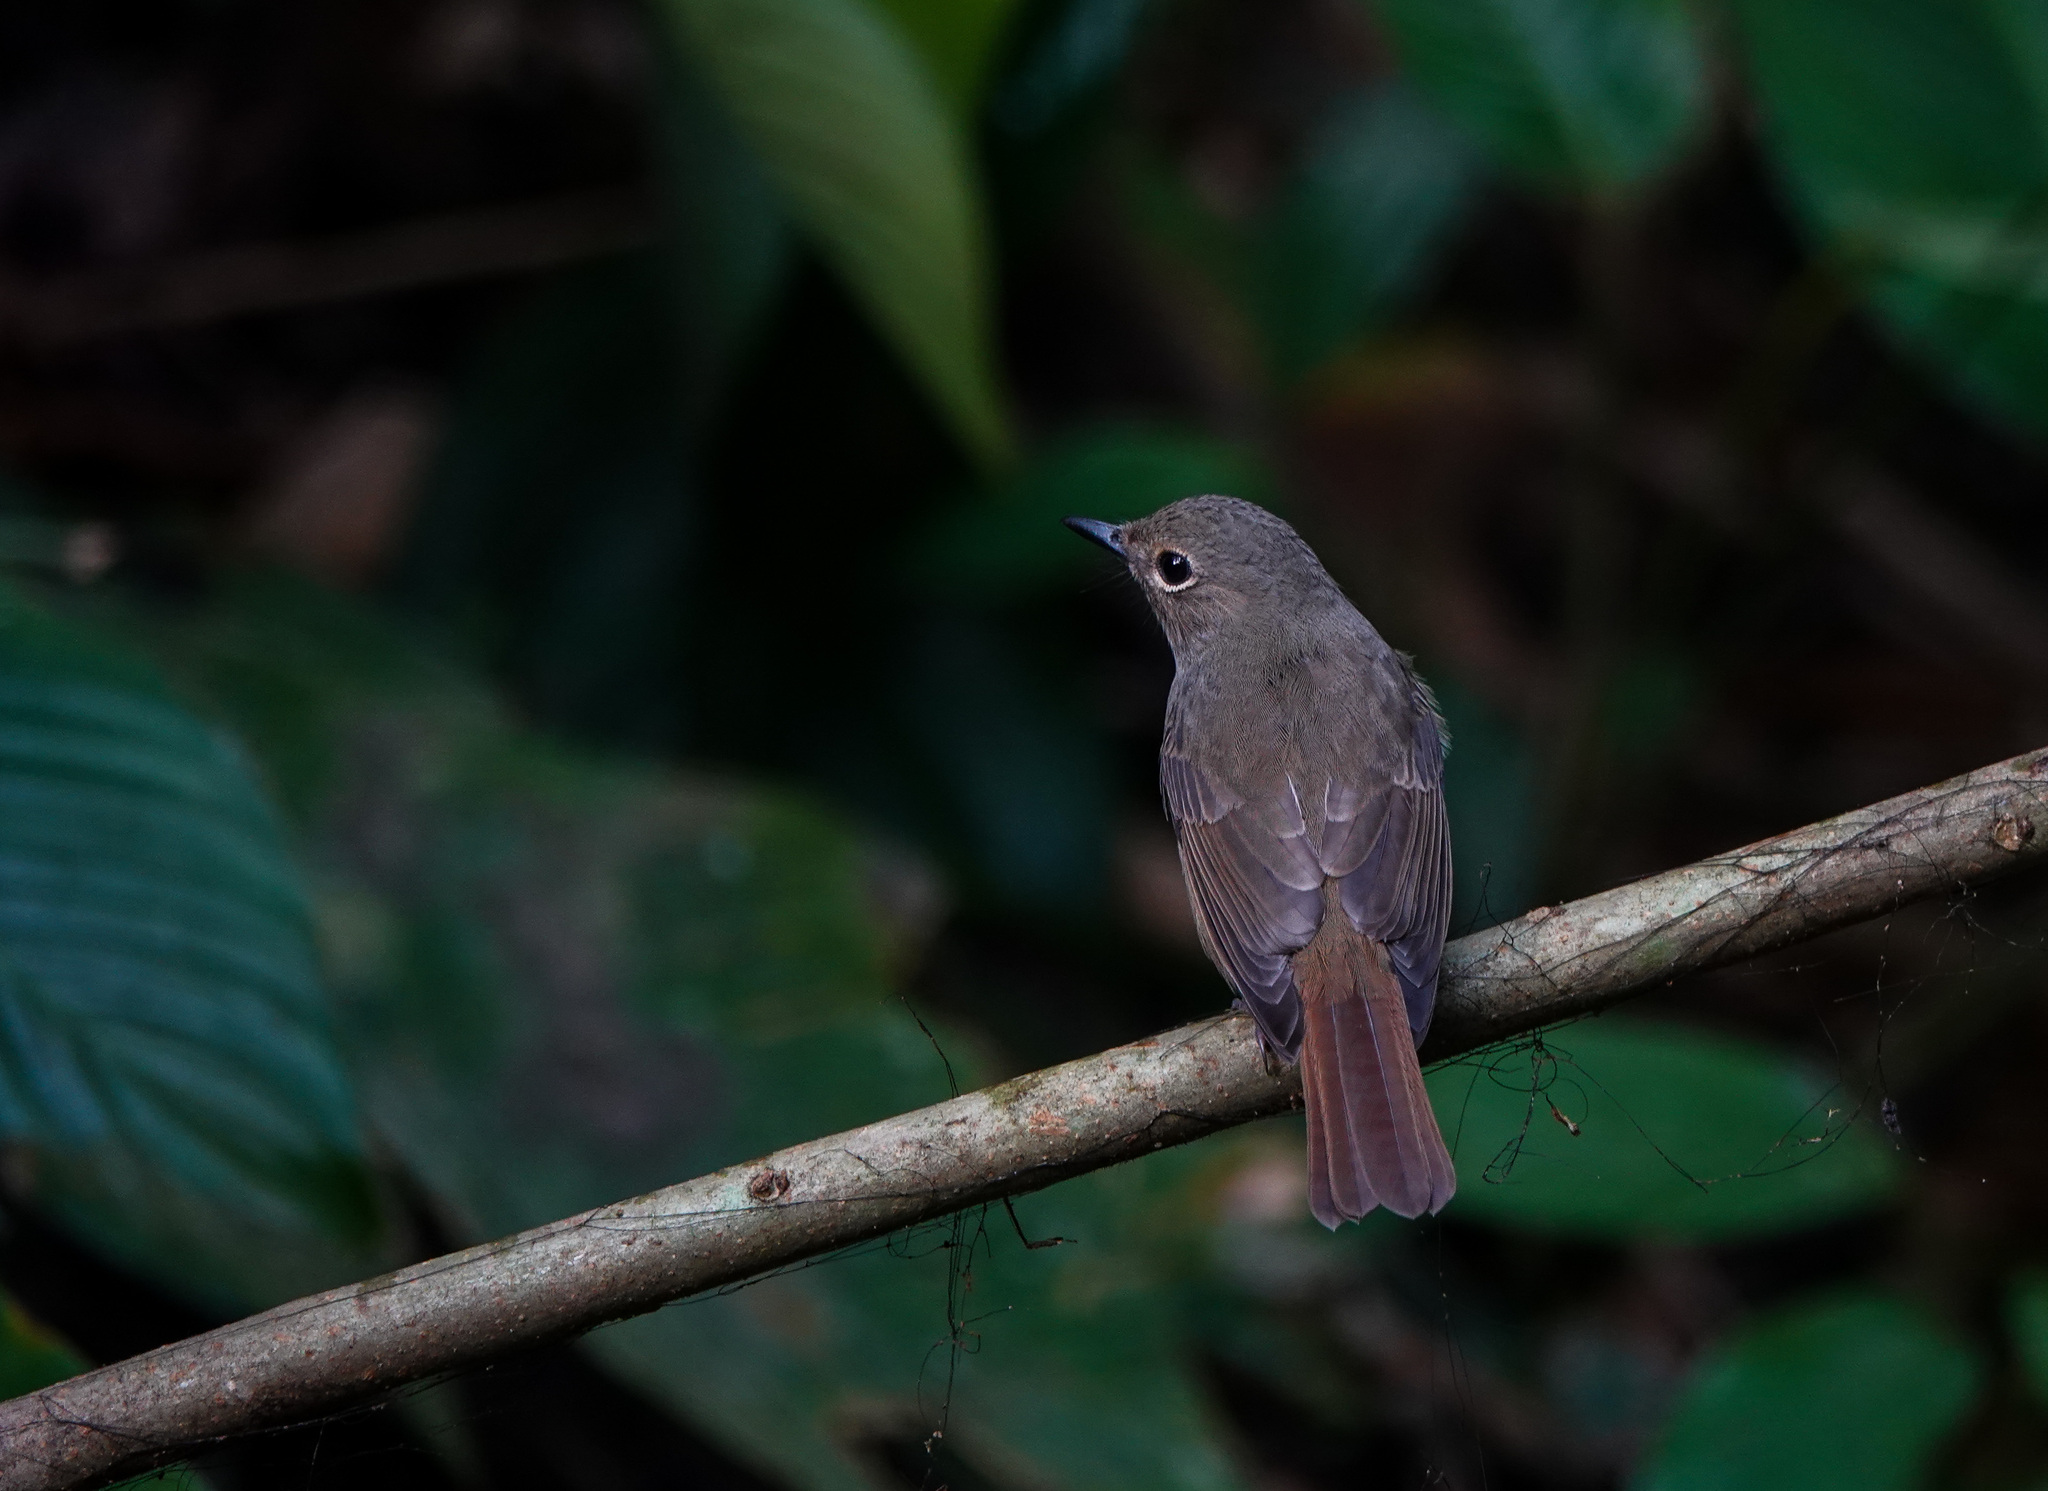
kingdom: Animalia
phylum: Chordata
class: Aves
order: Passeriformes
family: Muscicapidae
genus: Cyornis
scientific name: Cyornis unicolor
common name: Pale blue flycatcher
